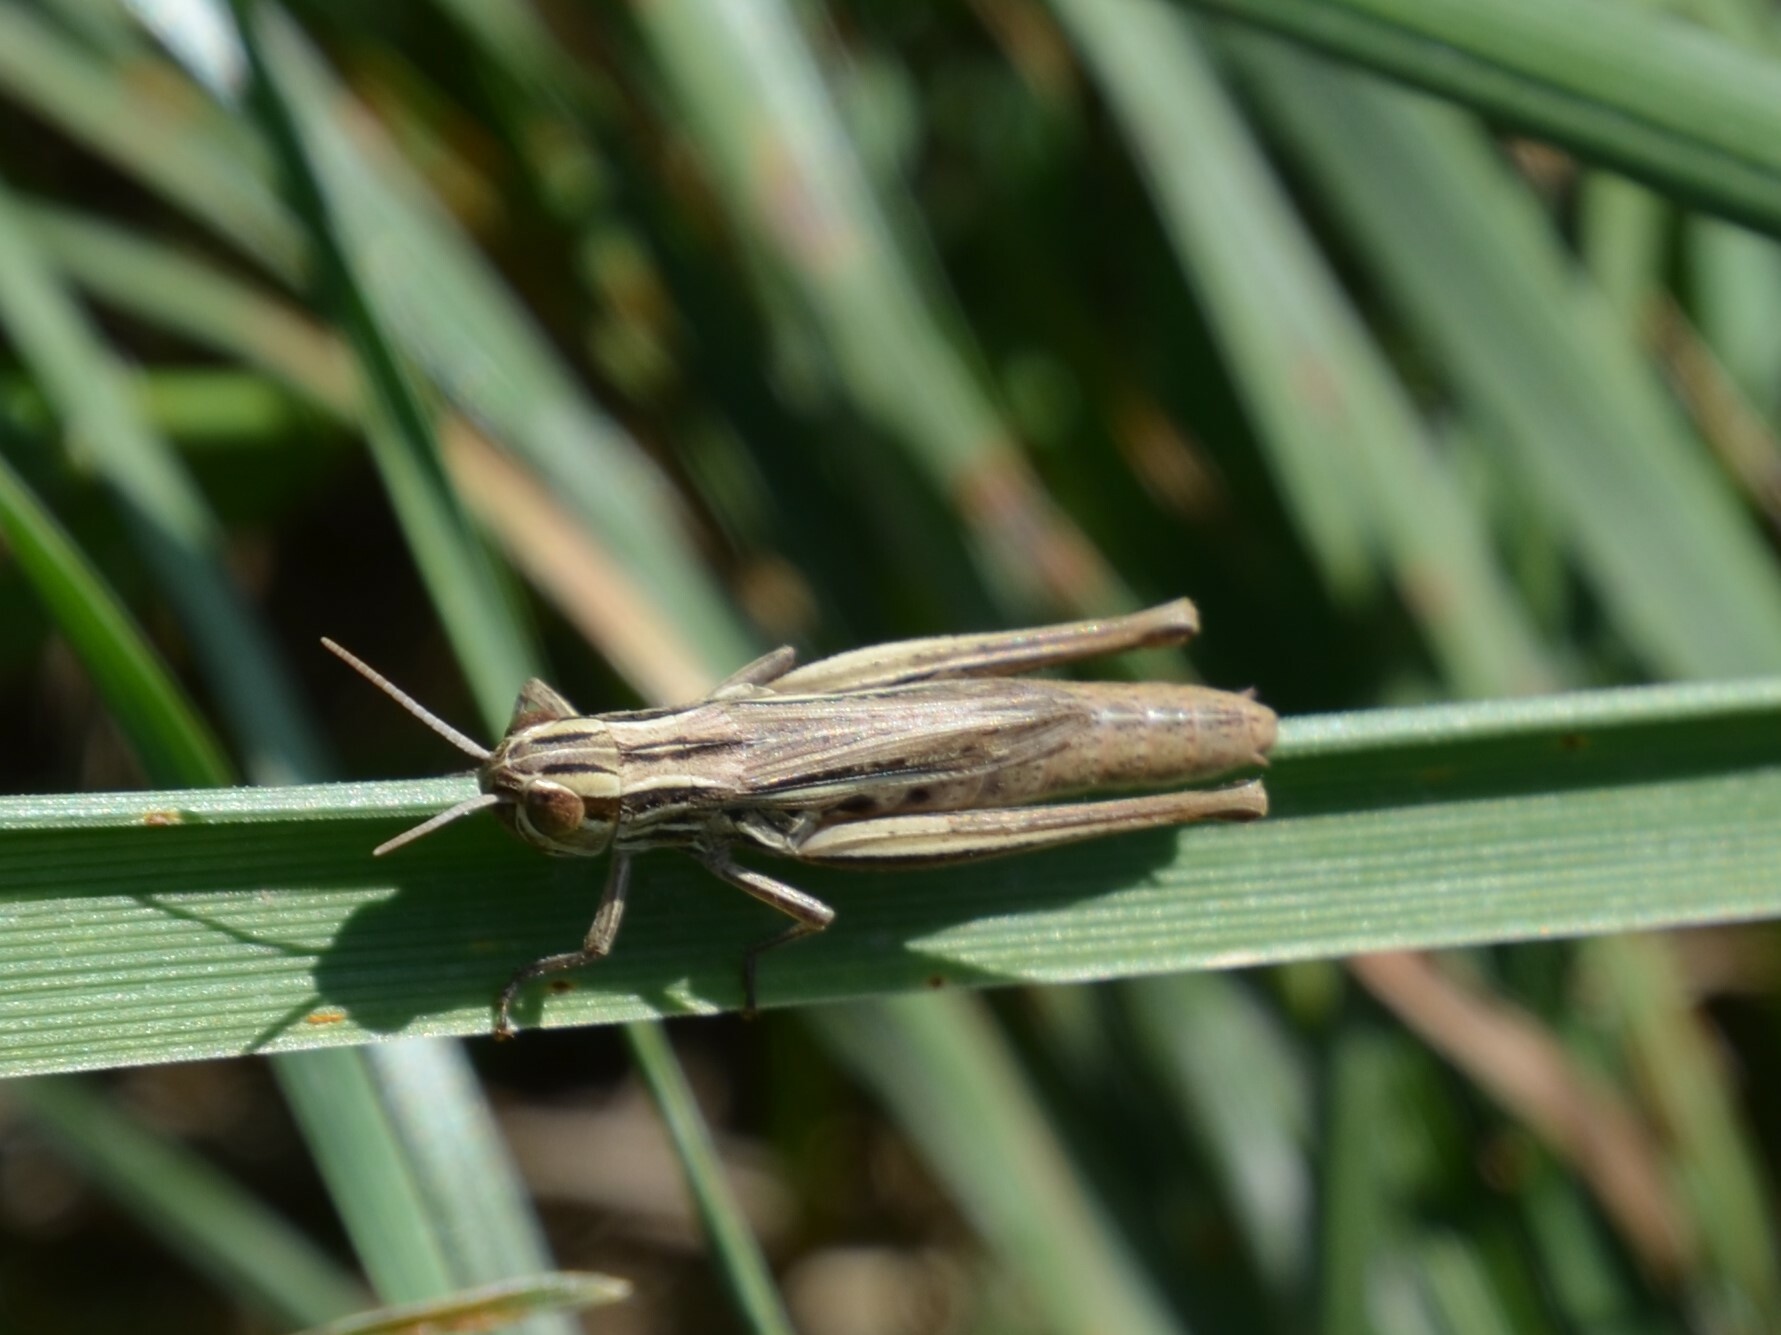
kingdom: Animalia
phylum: Arthropoda
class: Insecta
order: Orthoptera
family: Acrididae
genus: Euchorthippus
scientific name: Euchorthippus declivus
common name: Common straw grasshopper
